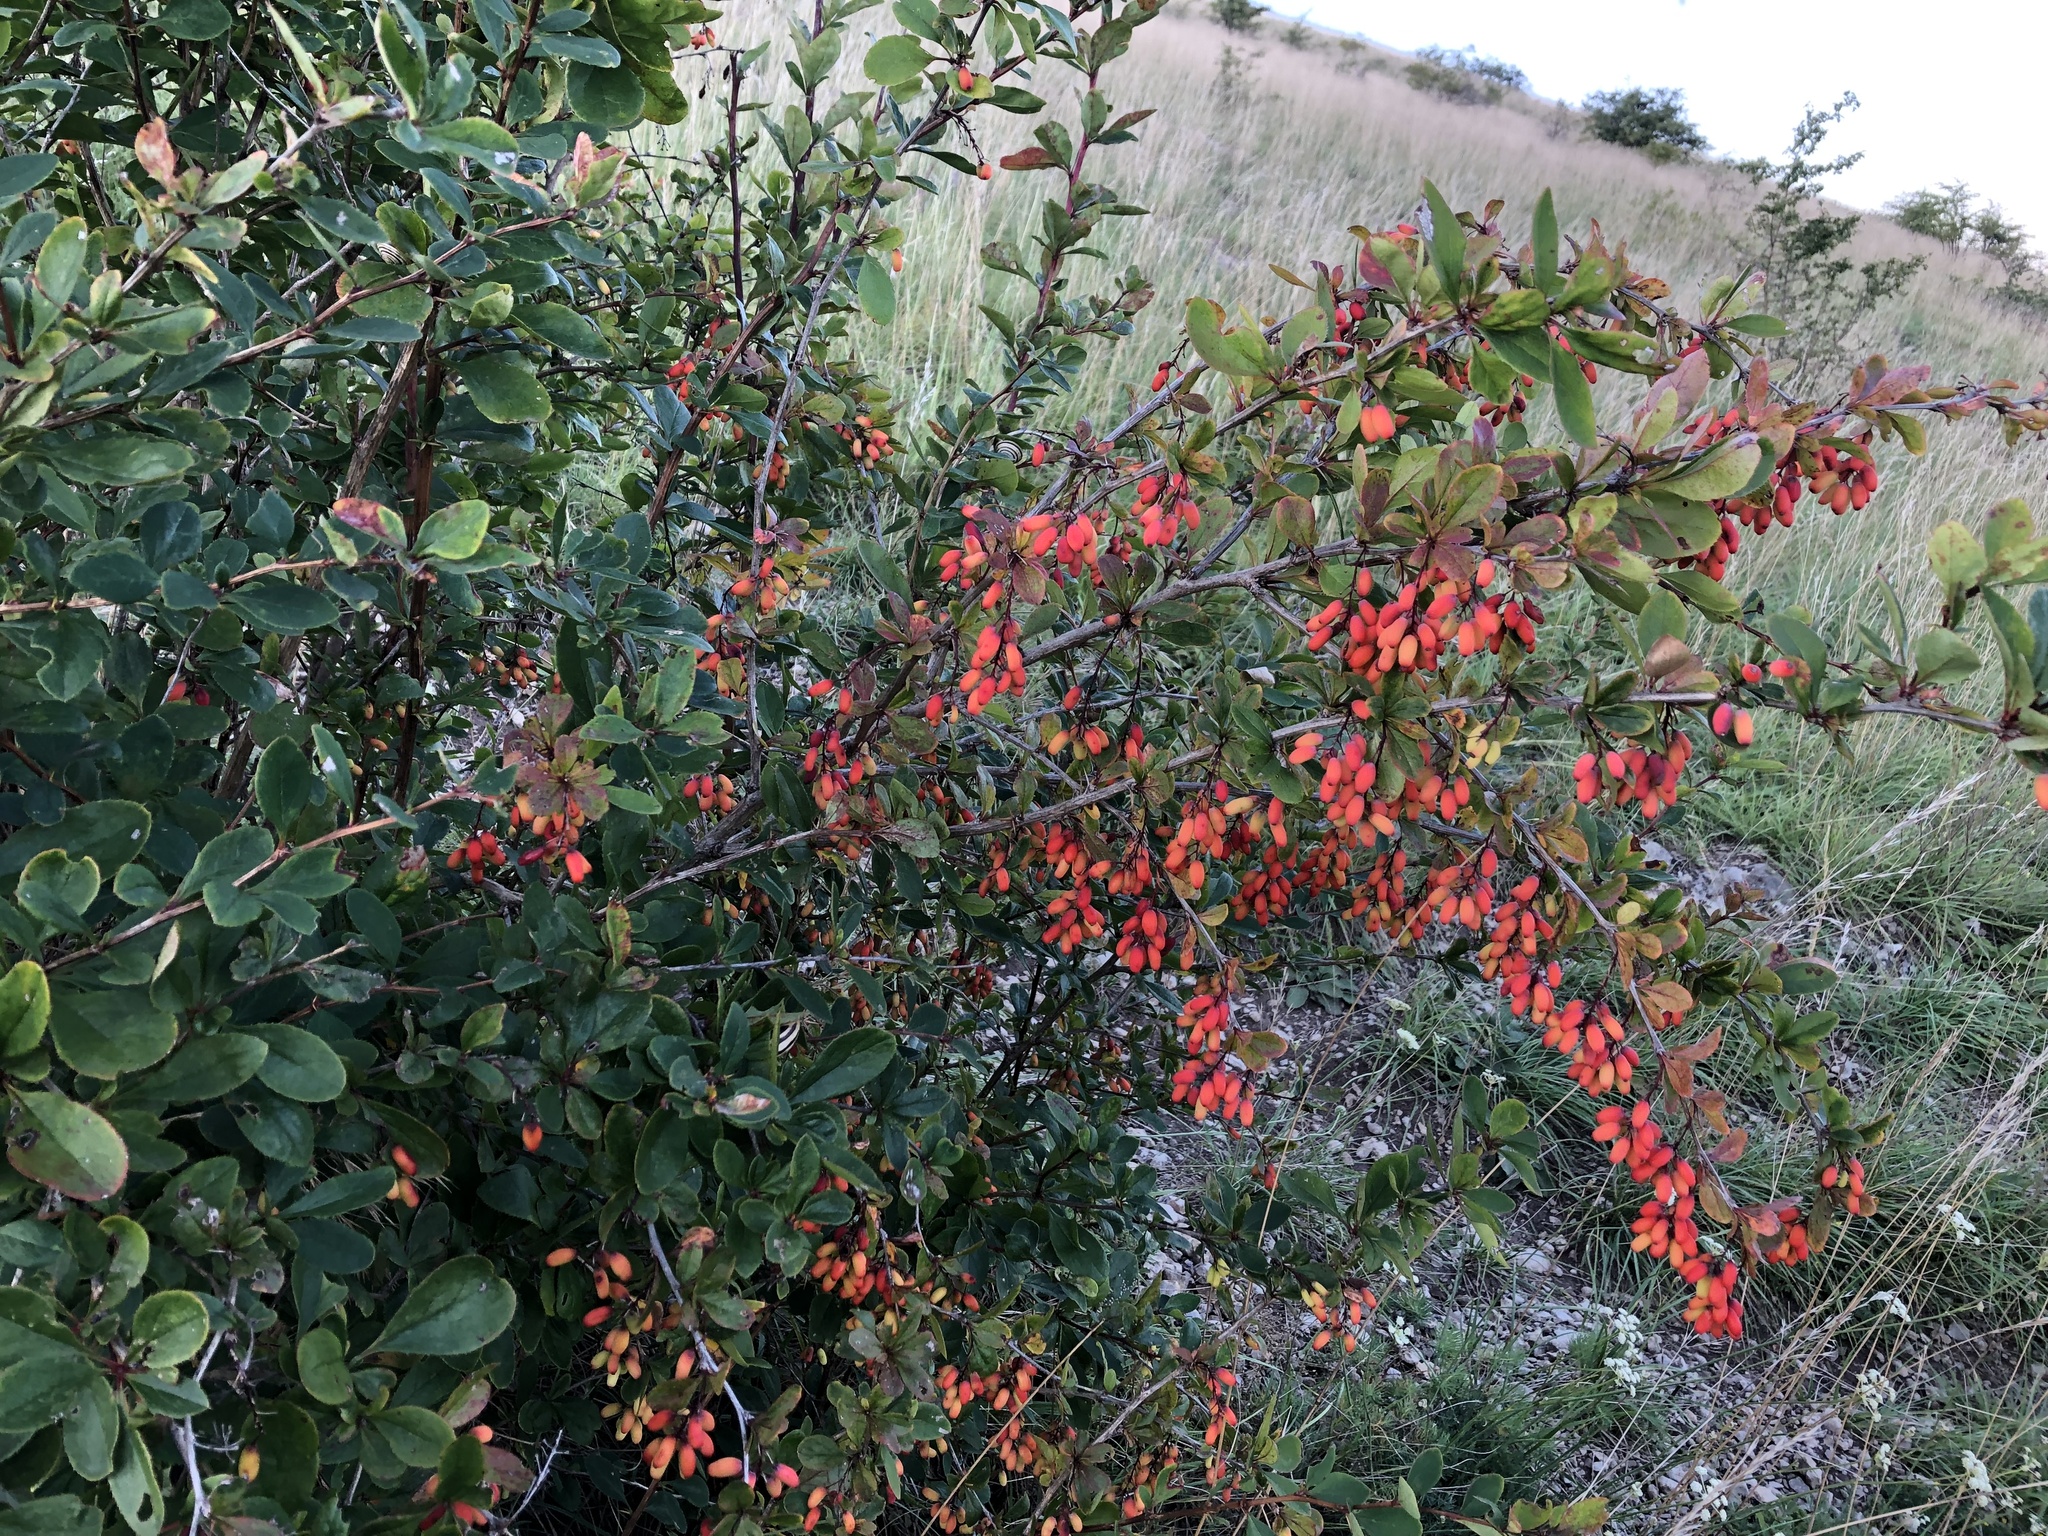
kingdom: Plantae
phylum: Tracheophyta
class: Magnoliopsida
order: Ranunculales
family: Berberidaceae
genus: Berberis
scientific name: Berberis vulgaris
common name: Barberry
